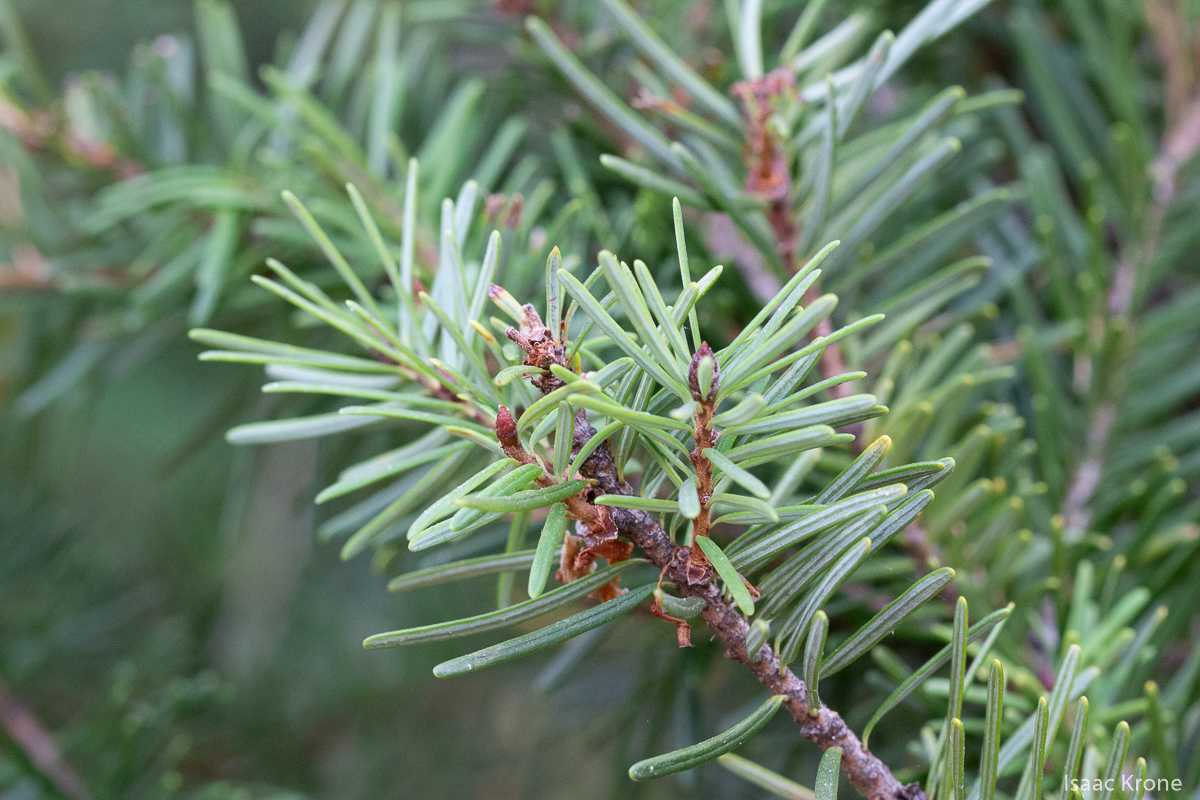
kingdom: Plantae
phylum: Tracheophyta
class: Pinopsida
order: Pinales
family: Pinaceae
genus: Pseudotsuga
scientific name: Pseudotsuga menziesii
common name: Douglas fir
